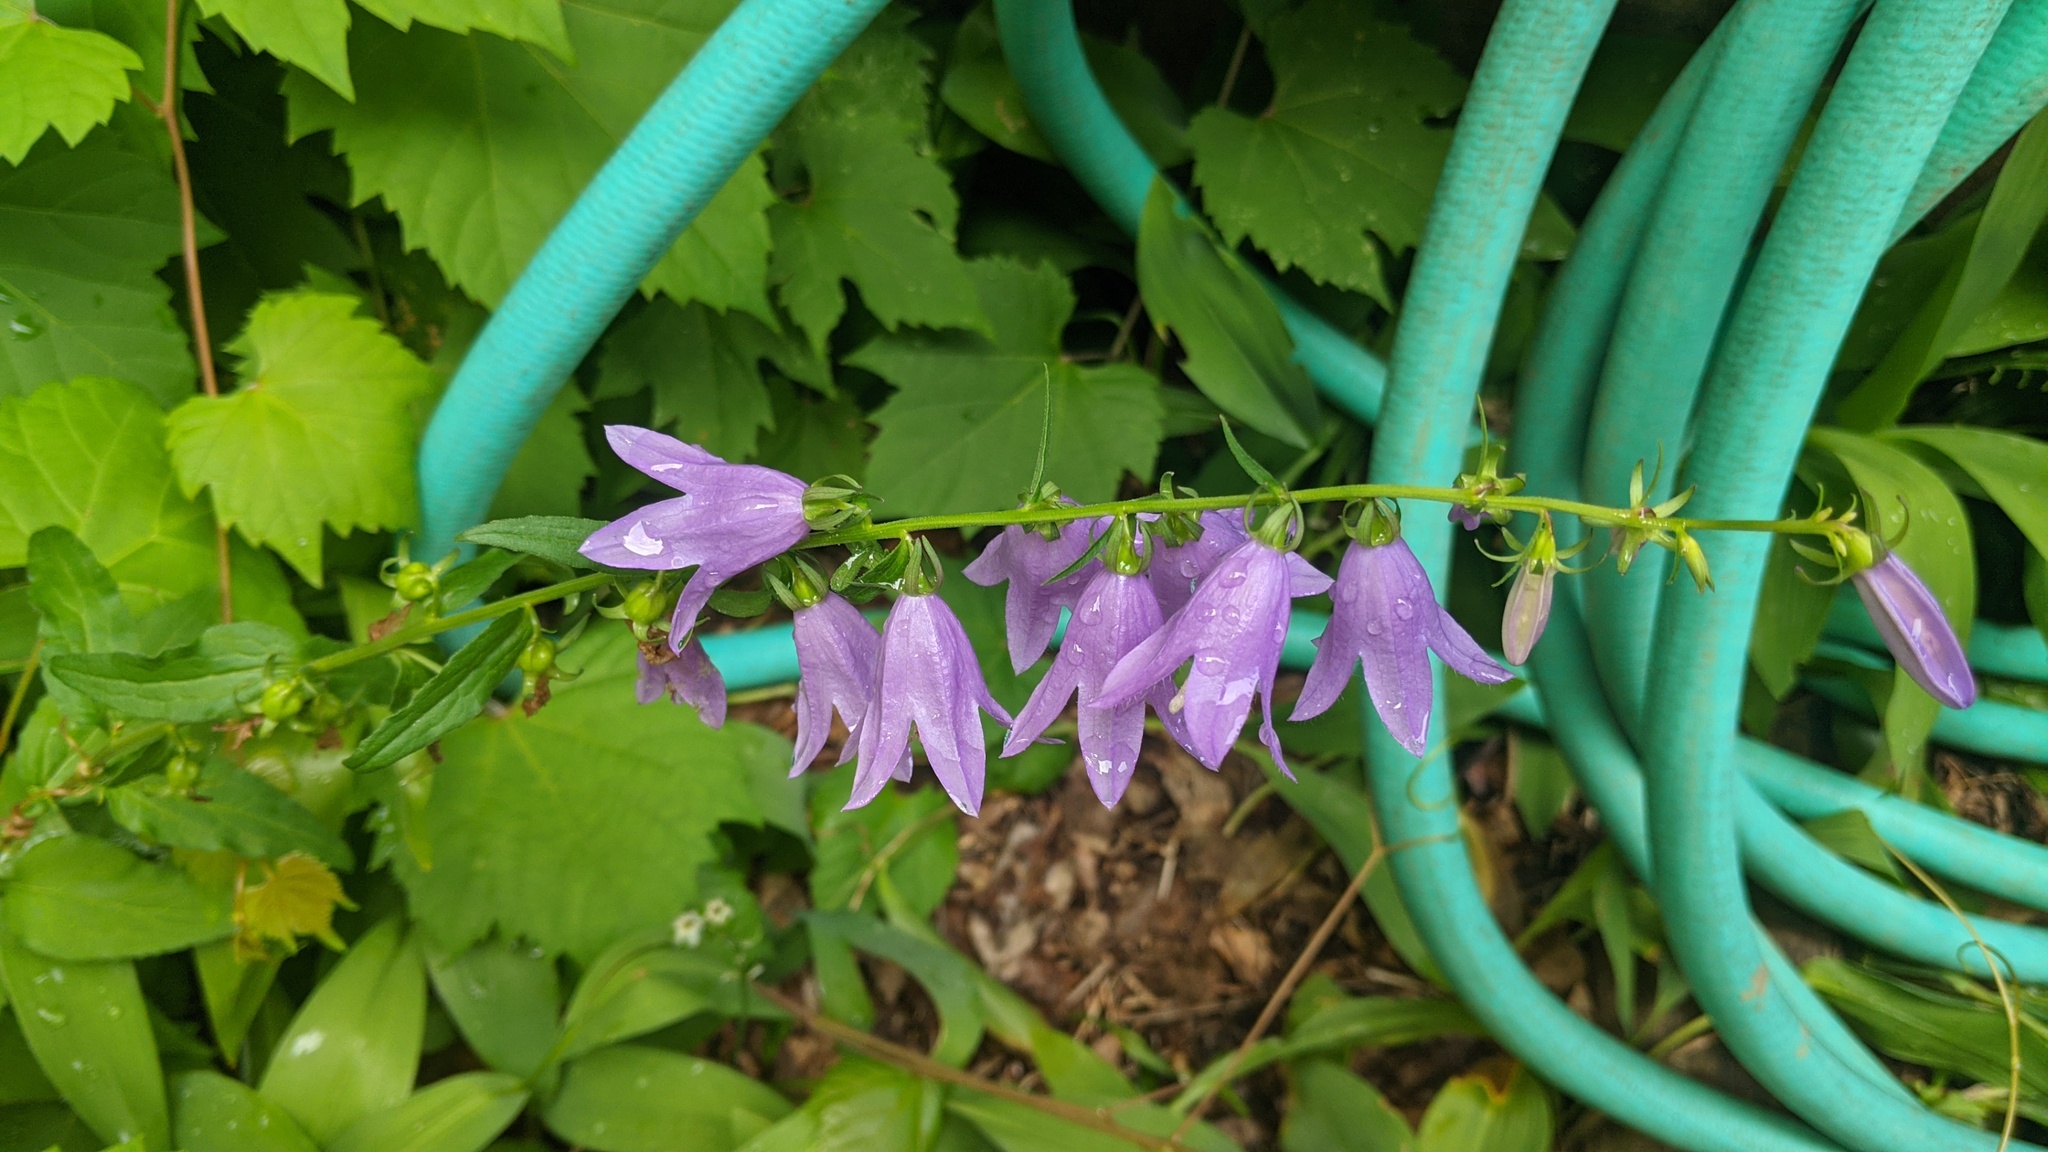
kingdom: Plantae
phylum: Tracheophyta
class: Magnoliopsida
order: Asterales
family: Campanulaceae
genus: Campanula
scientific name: Campanula rapunculoides
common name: Creeping bellflower
